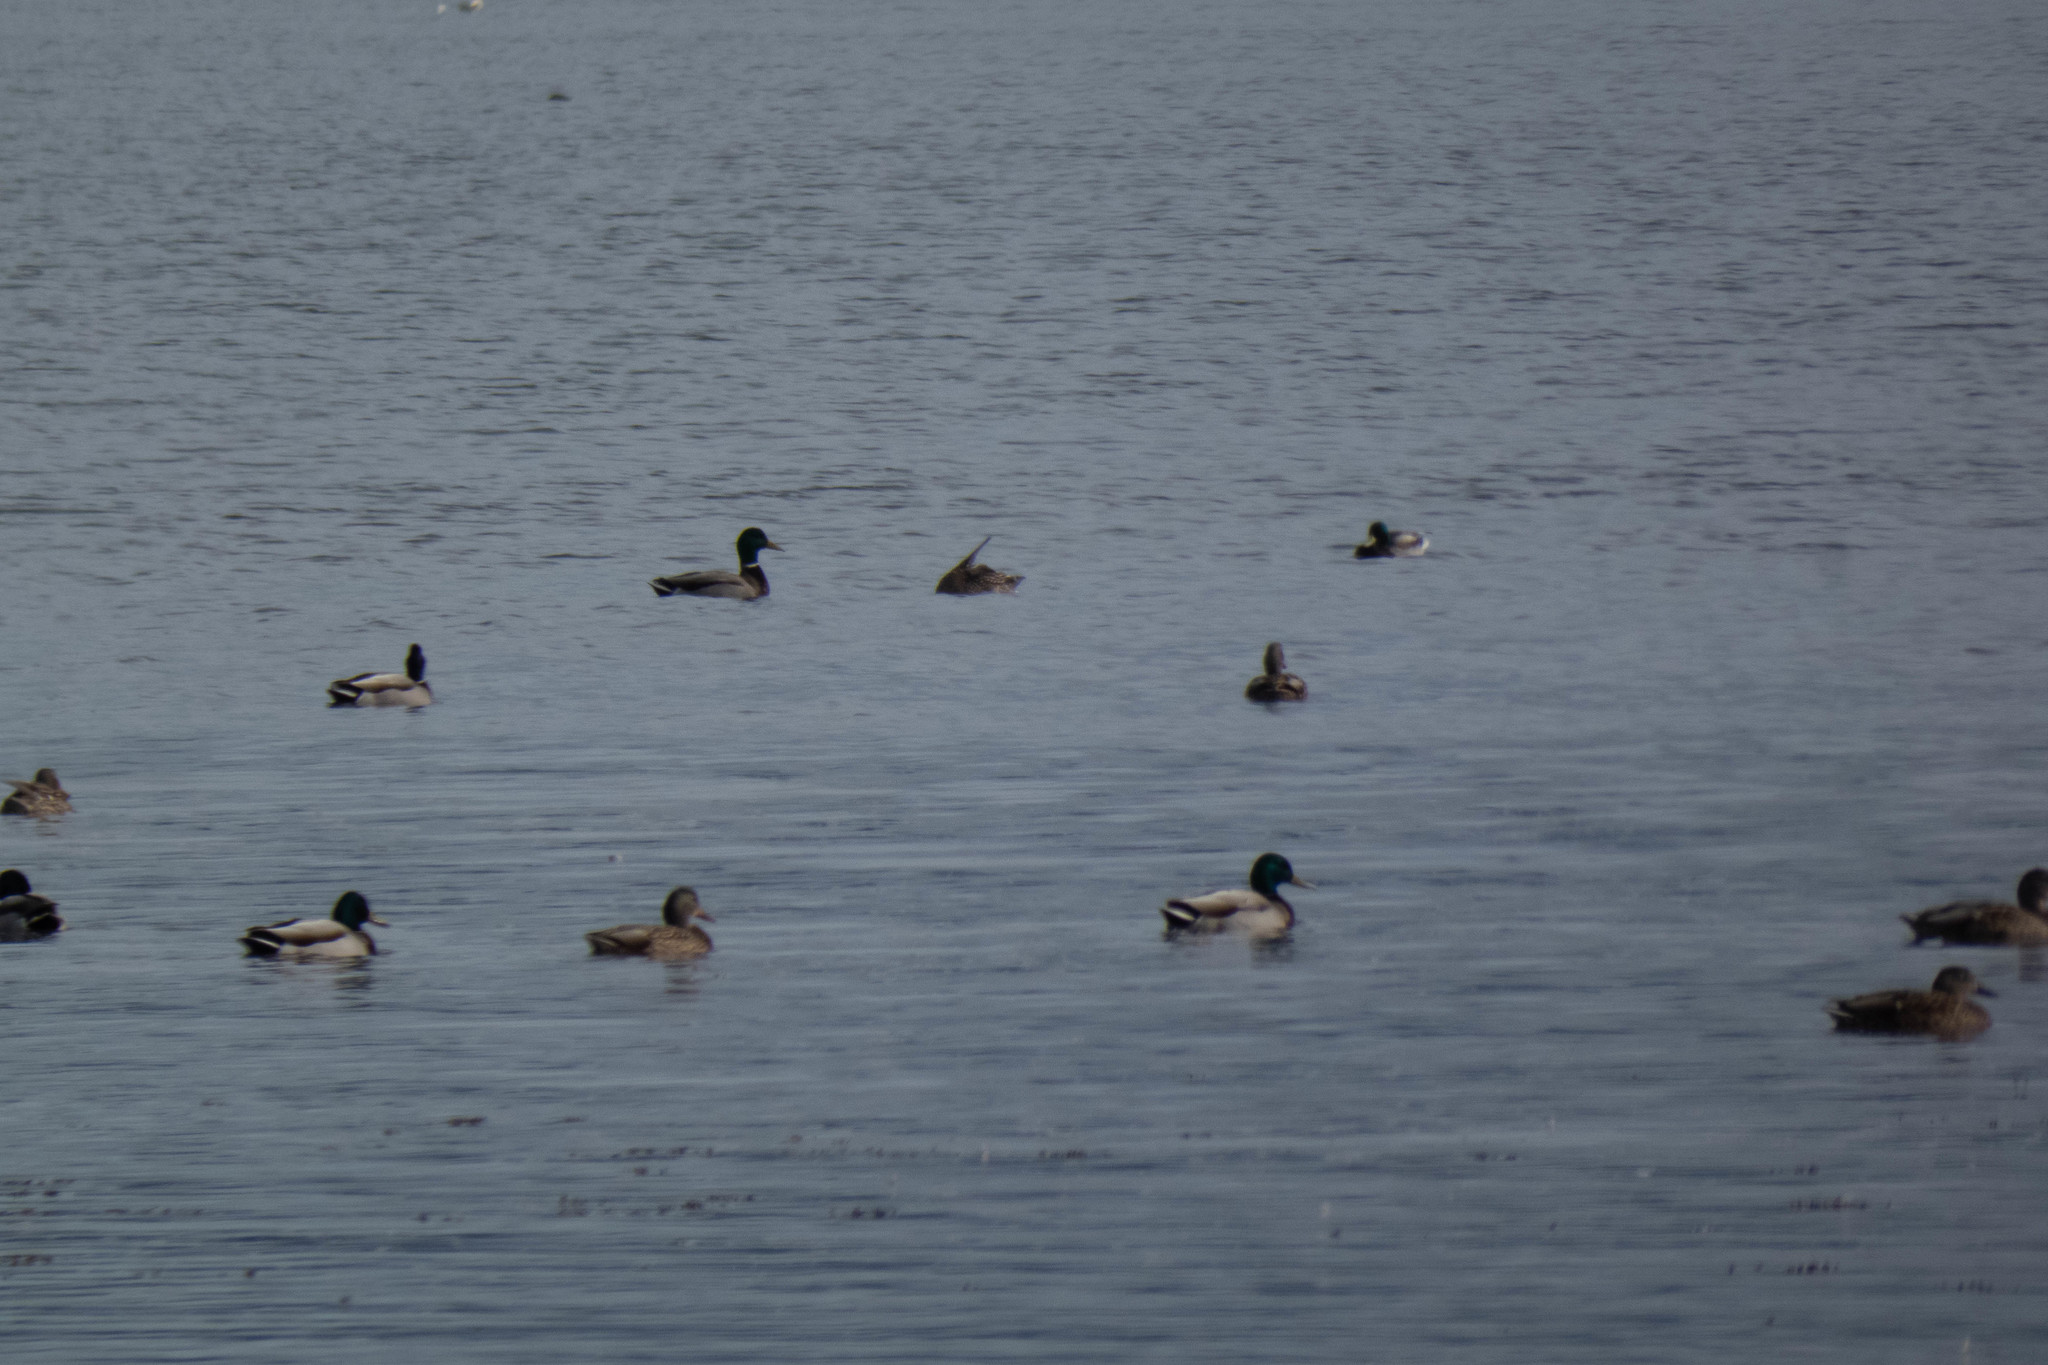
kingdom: Animalia
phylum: Chordata
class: Aves
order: Anseriformes
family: Anatidae
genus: Anas
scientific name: Anas platyrhynchos
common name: Mallard
